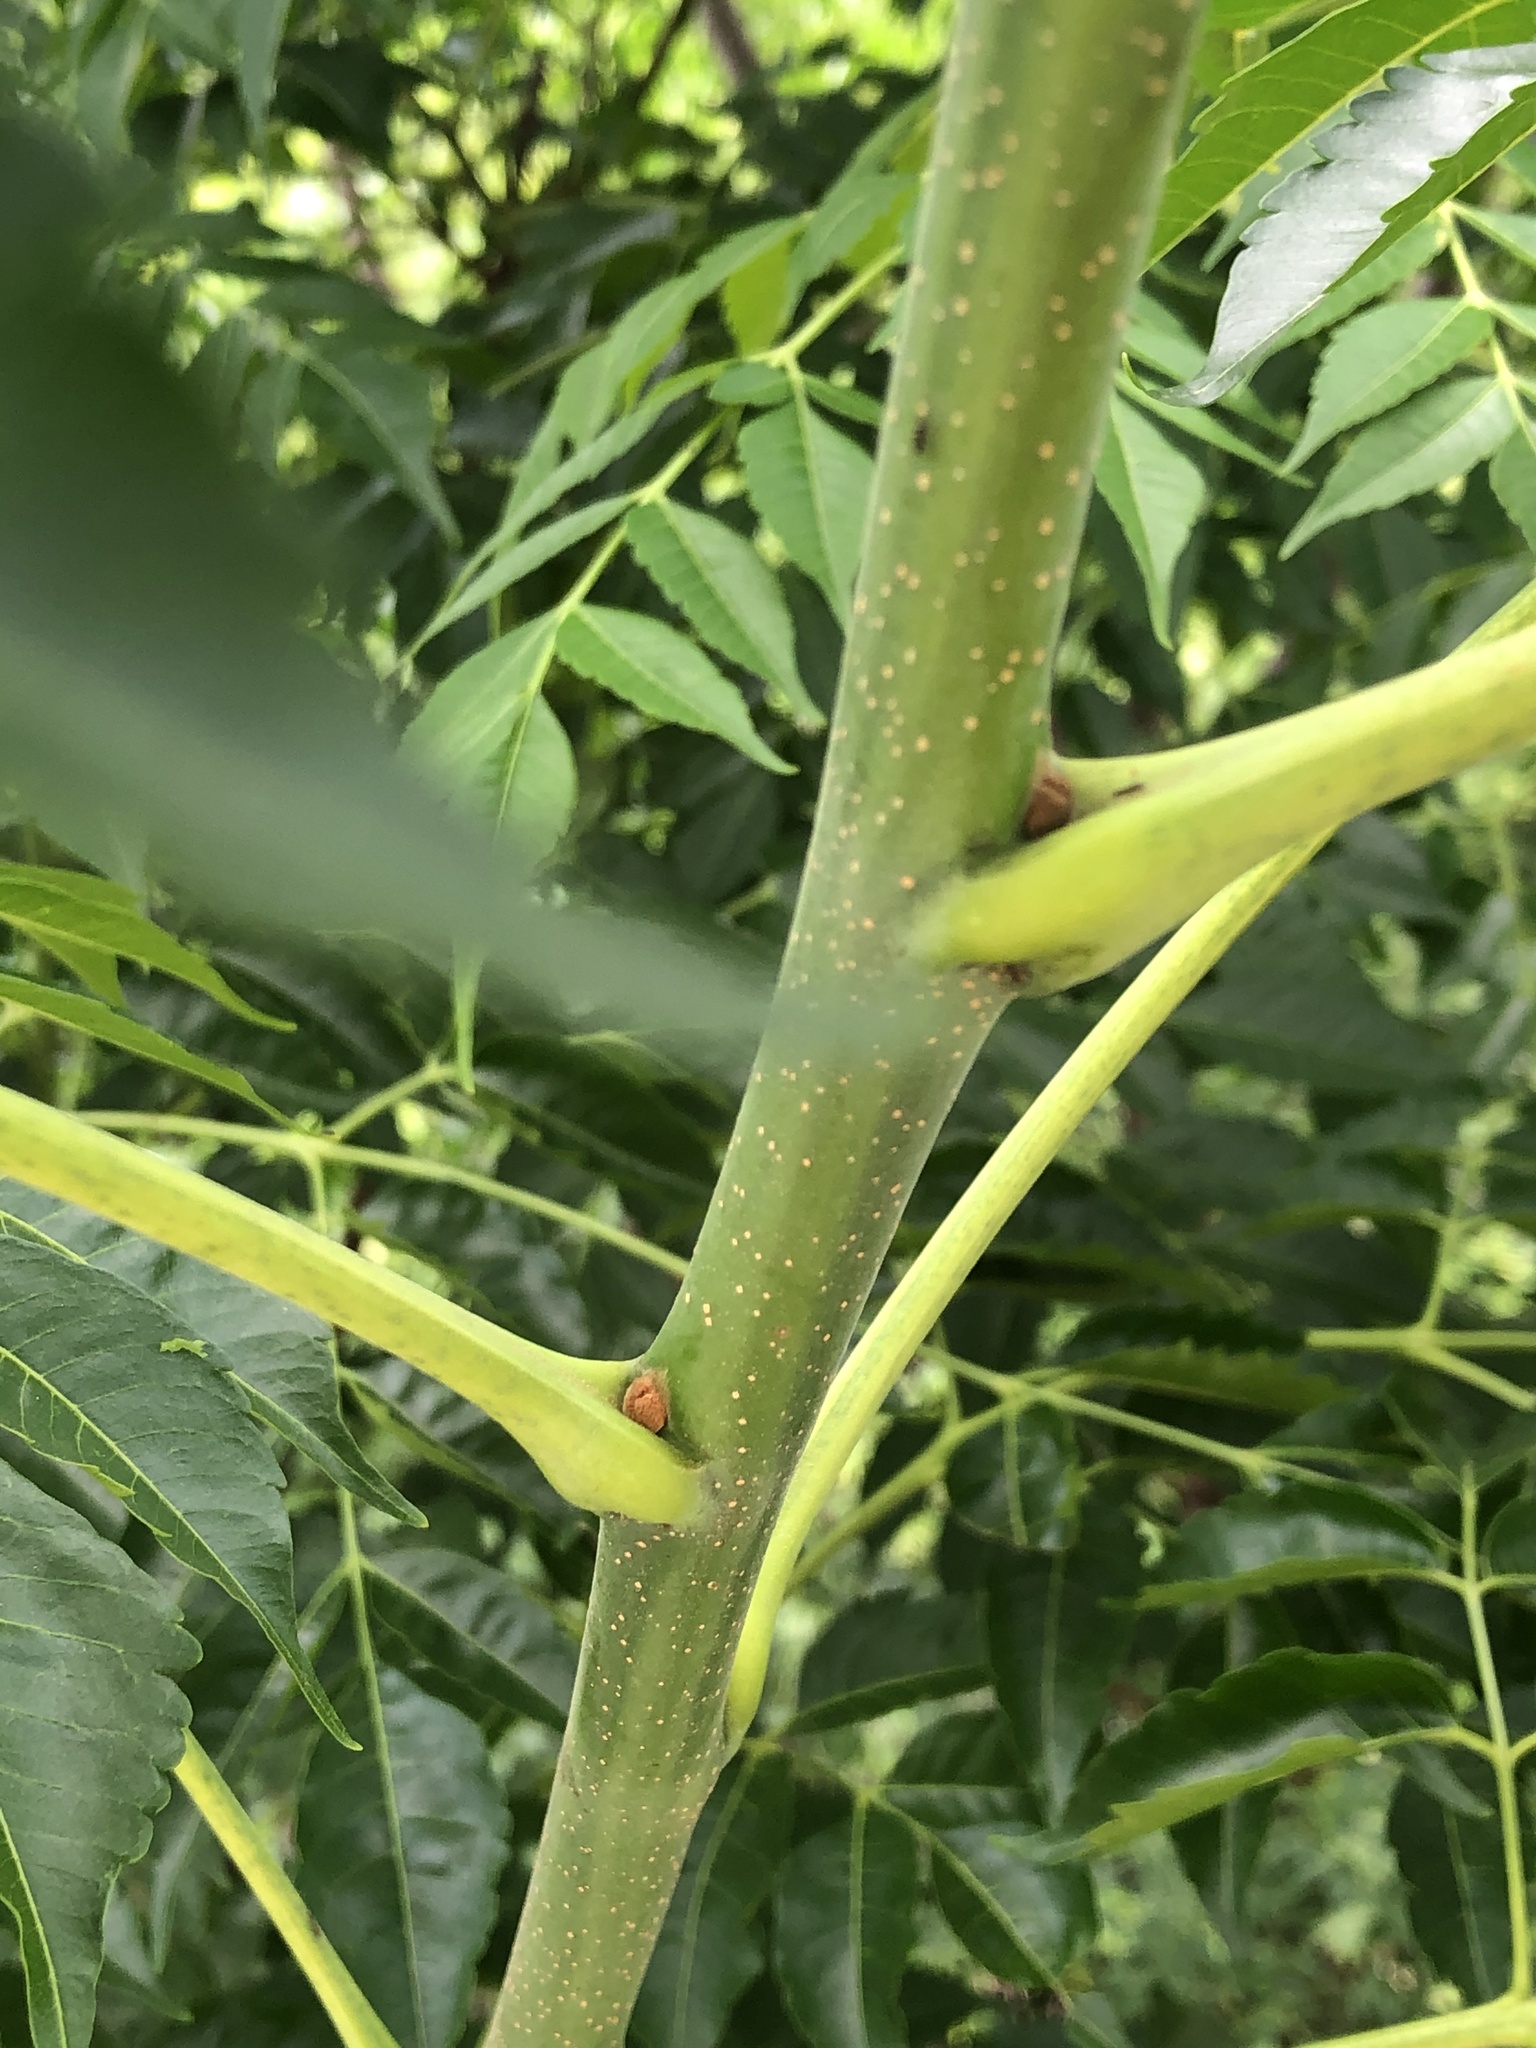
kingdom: Plantae
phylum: Tracheophyta
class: Magnoliopsida
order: Sapindales
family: Meliaceae
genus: Melia
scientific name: Melia azedarach
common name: Chinaberrytree
